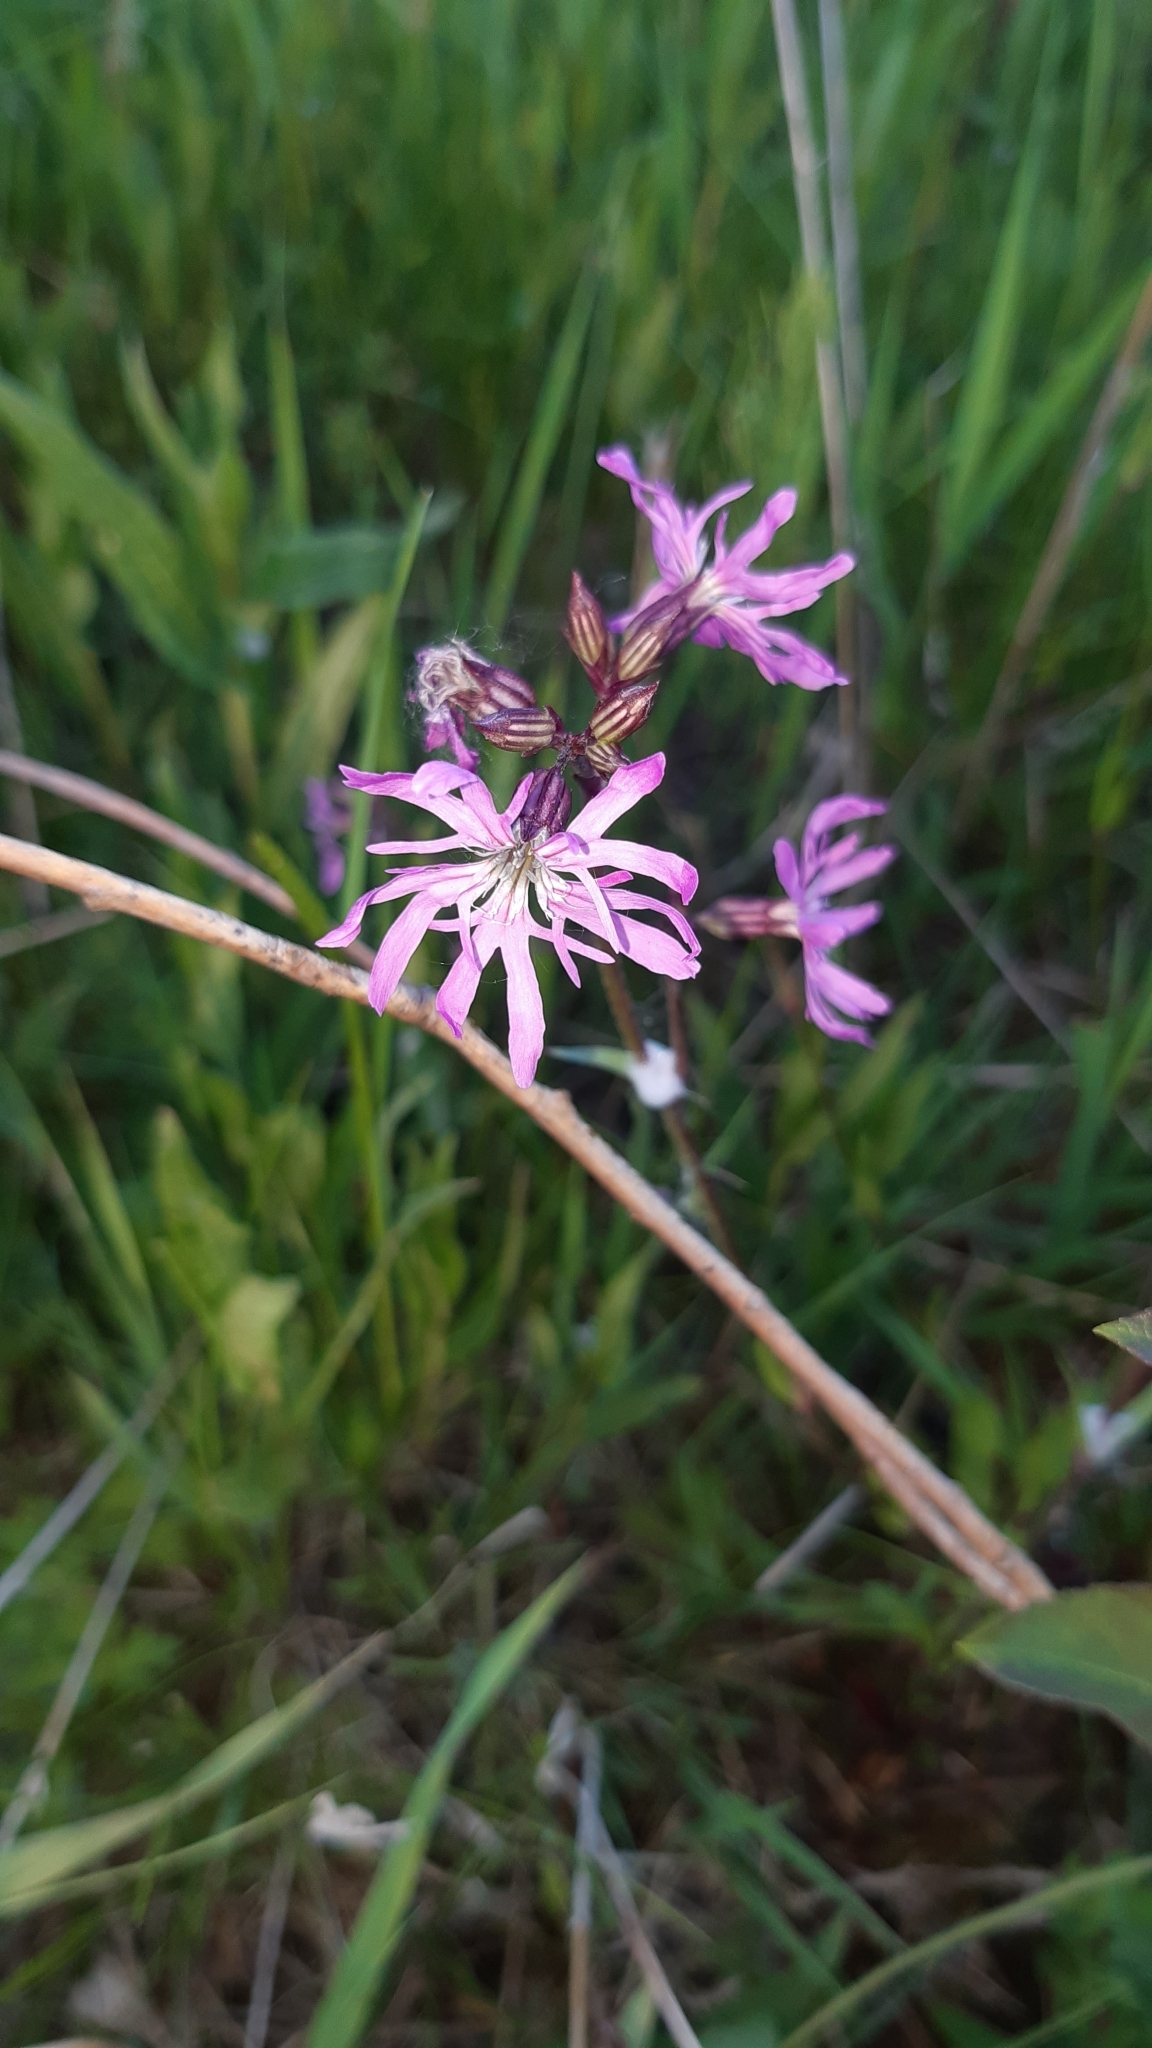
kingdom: Plantae
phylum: Tracheophyta
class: Magnoliopsida
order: Caryophyllales
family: Caryophyllaceae
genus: Silene
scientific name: Silene flos-cuculi
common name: Ragged-robin
